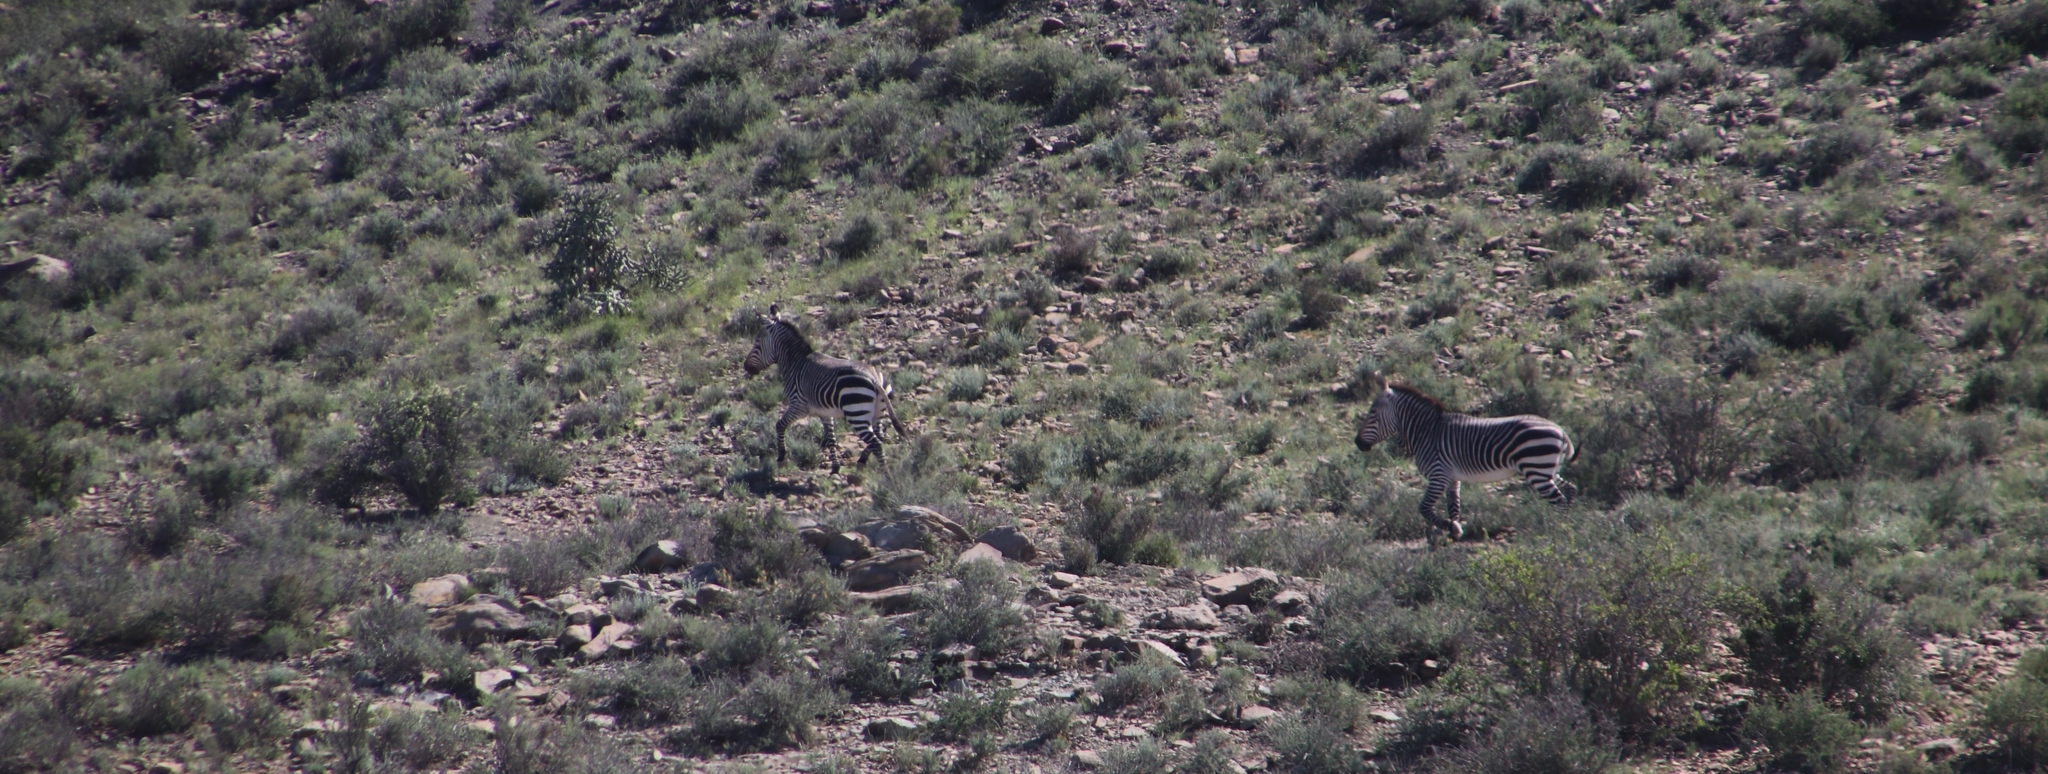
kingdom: Animalia
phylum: Chordata
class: Mammalia
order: Perissodactyla
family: Equidae
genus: Equus
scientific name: Equus zebra
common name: Mountain zebra
